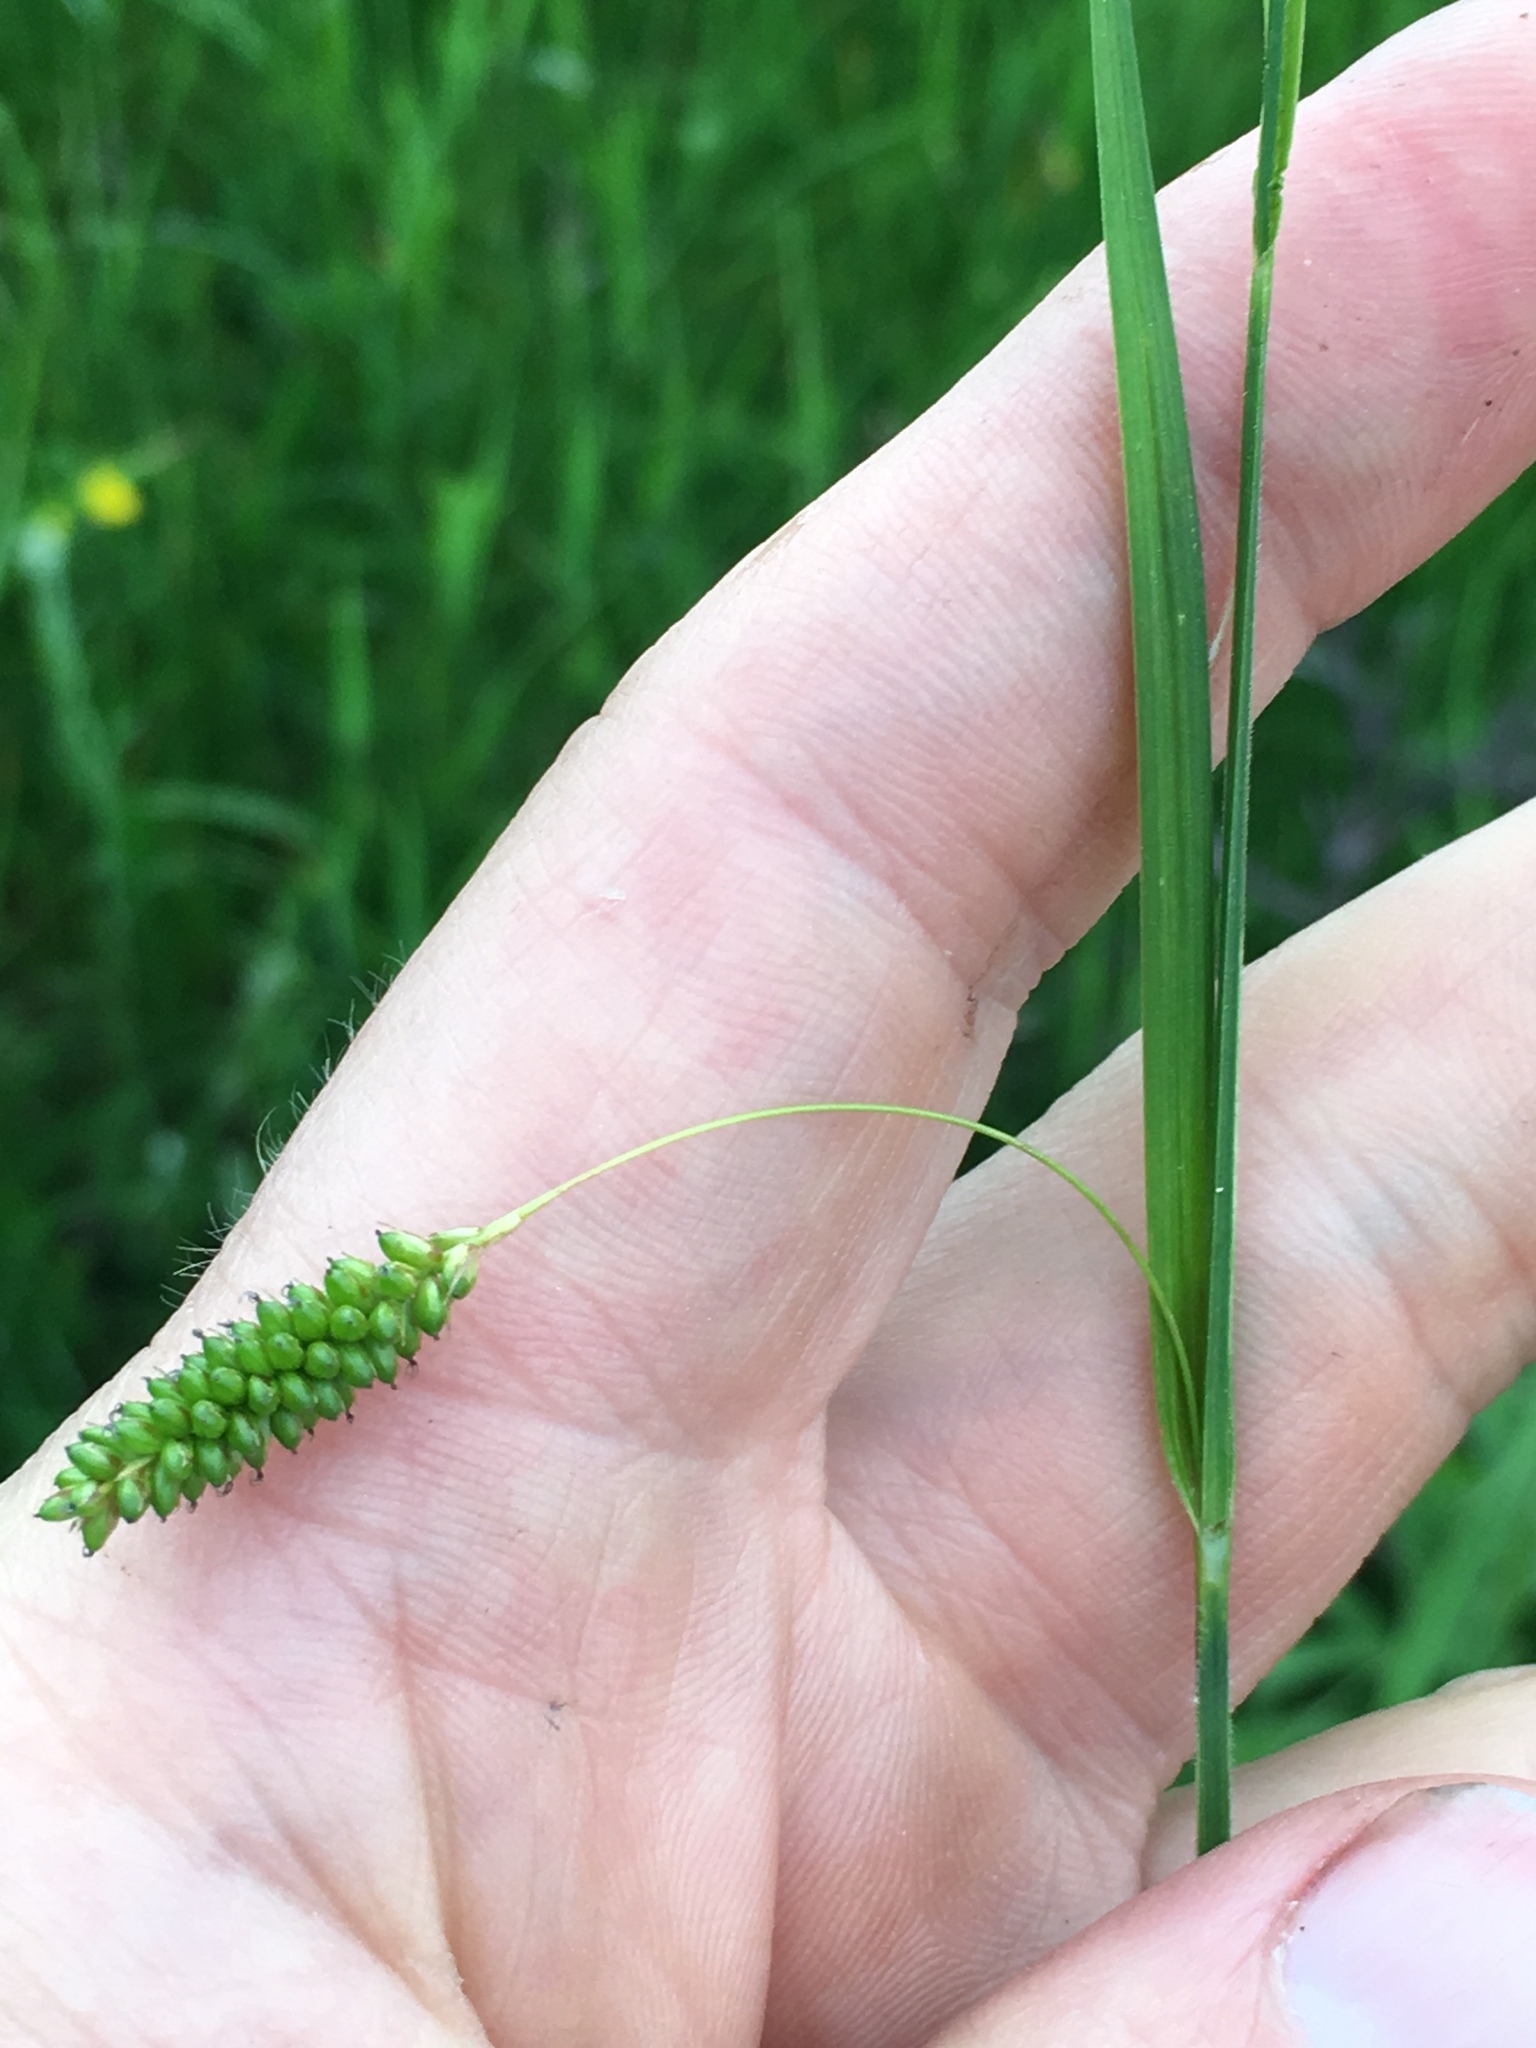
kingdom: Plantae
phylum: Tracheophyta
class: Liliopsida
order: Poales
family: Cyperaceae
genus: Carex
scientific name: Carex granularis
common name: Granular sedge
